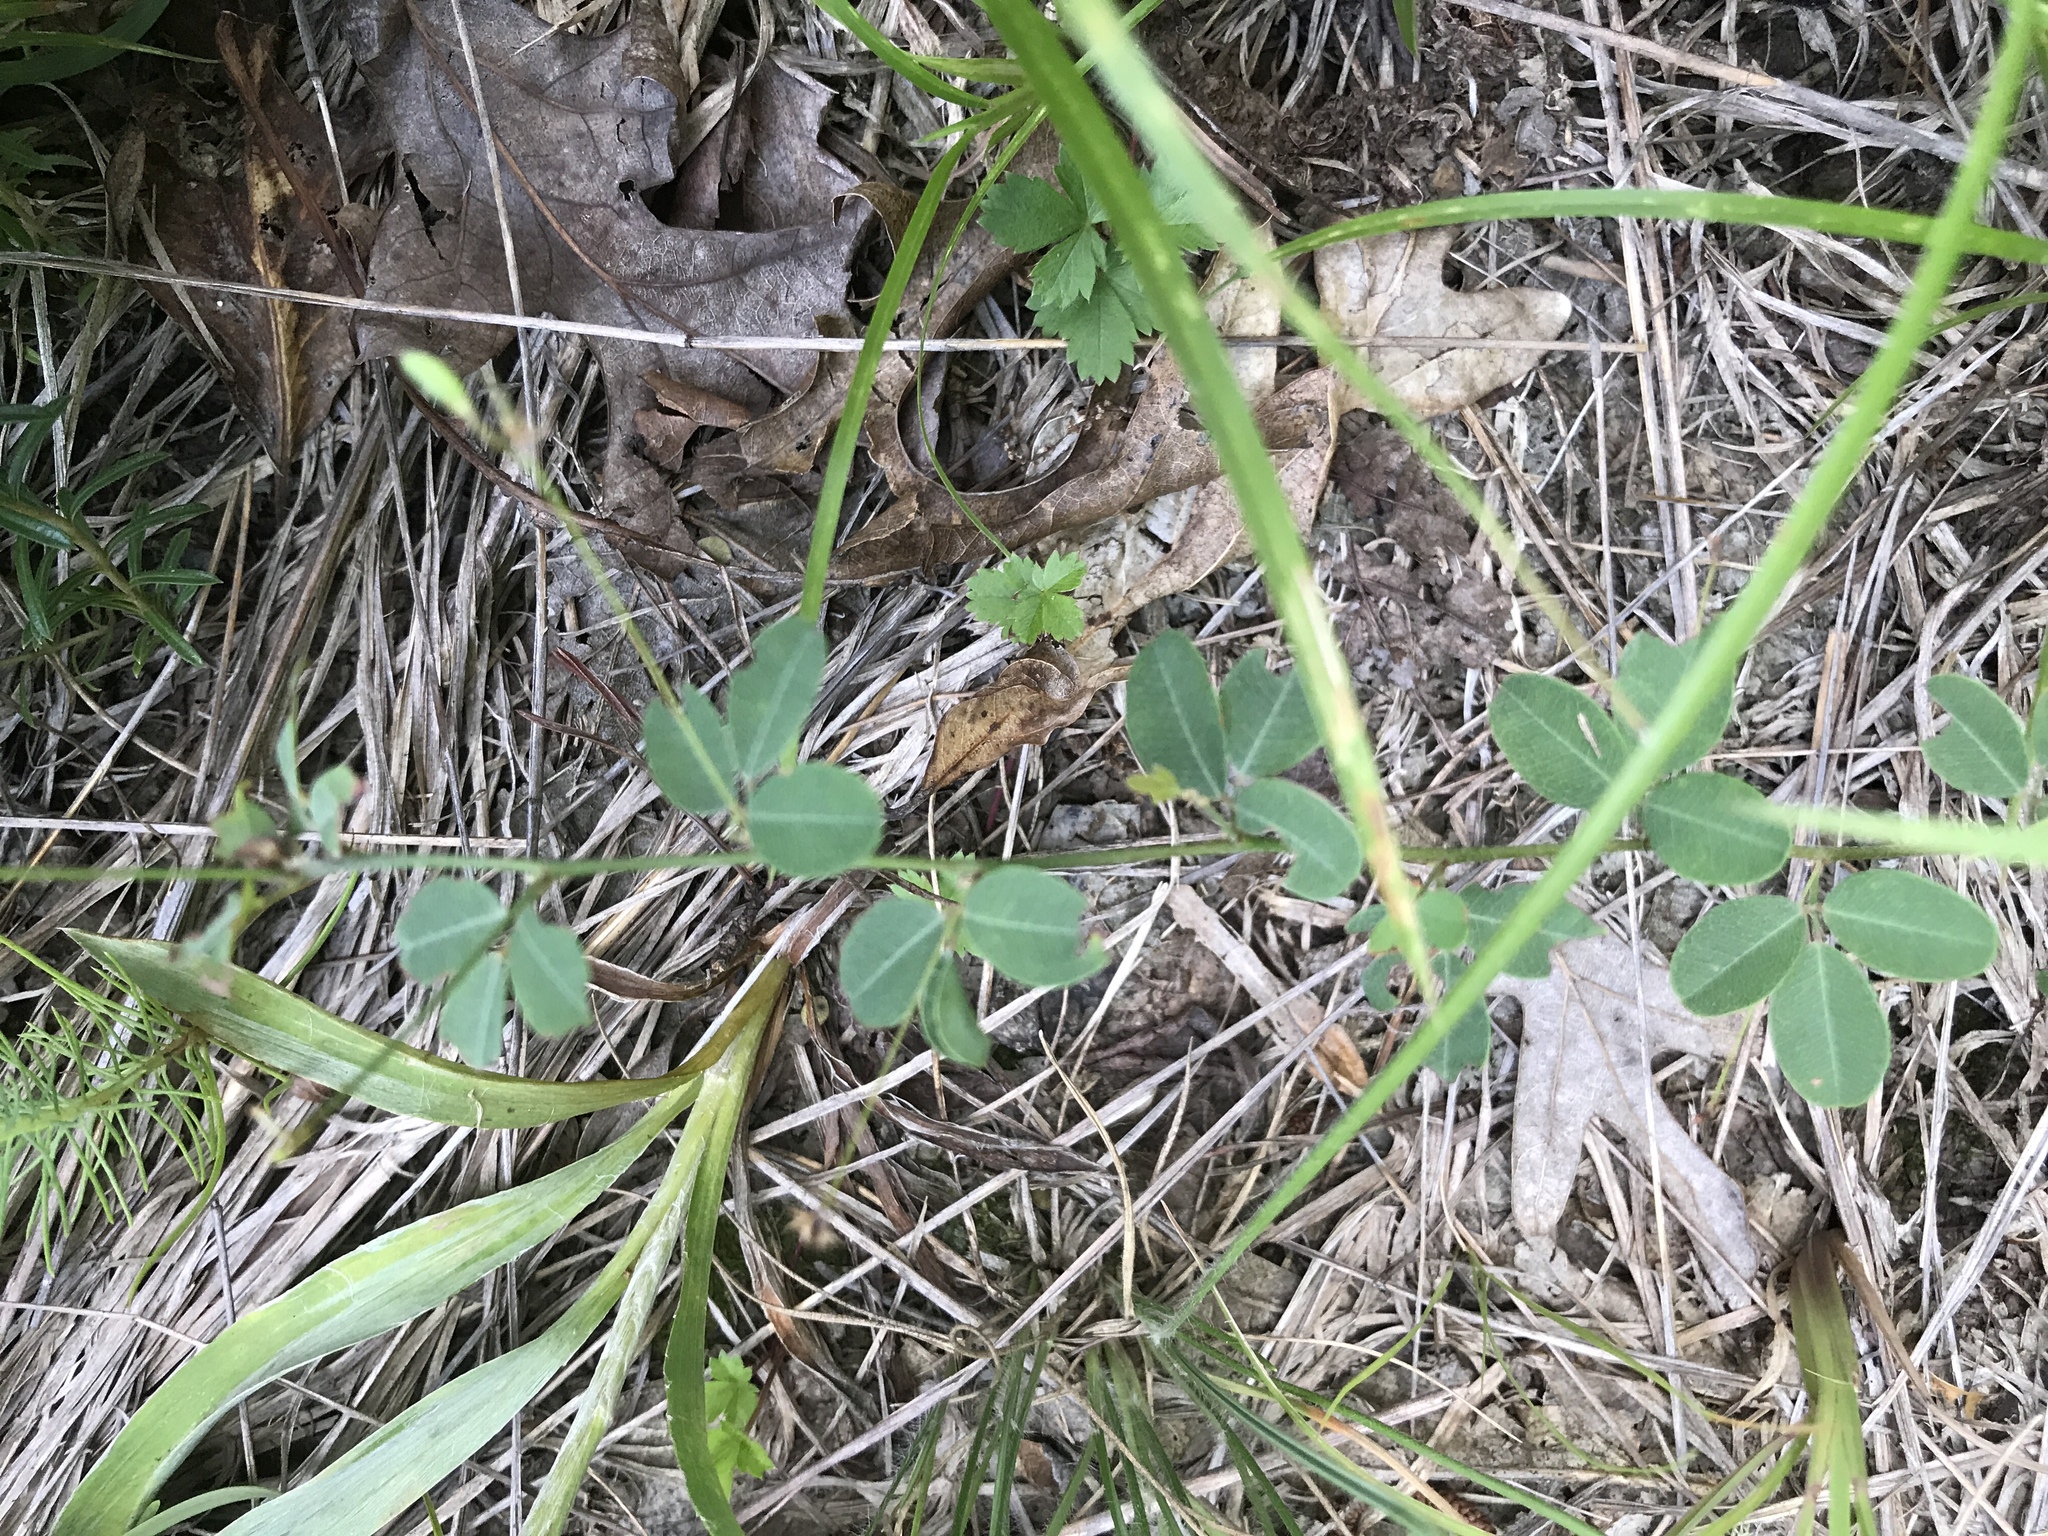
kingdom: Plantae
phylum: Tracheophyta
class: Magnoliopsida
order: Fabales
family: Fabaceae
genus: Lespedeza
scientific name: Lespedeza repens
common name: Creeping bush-clover
